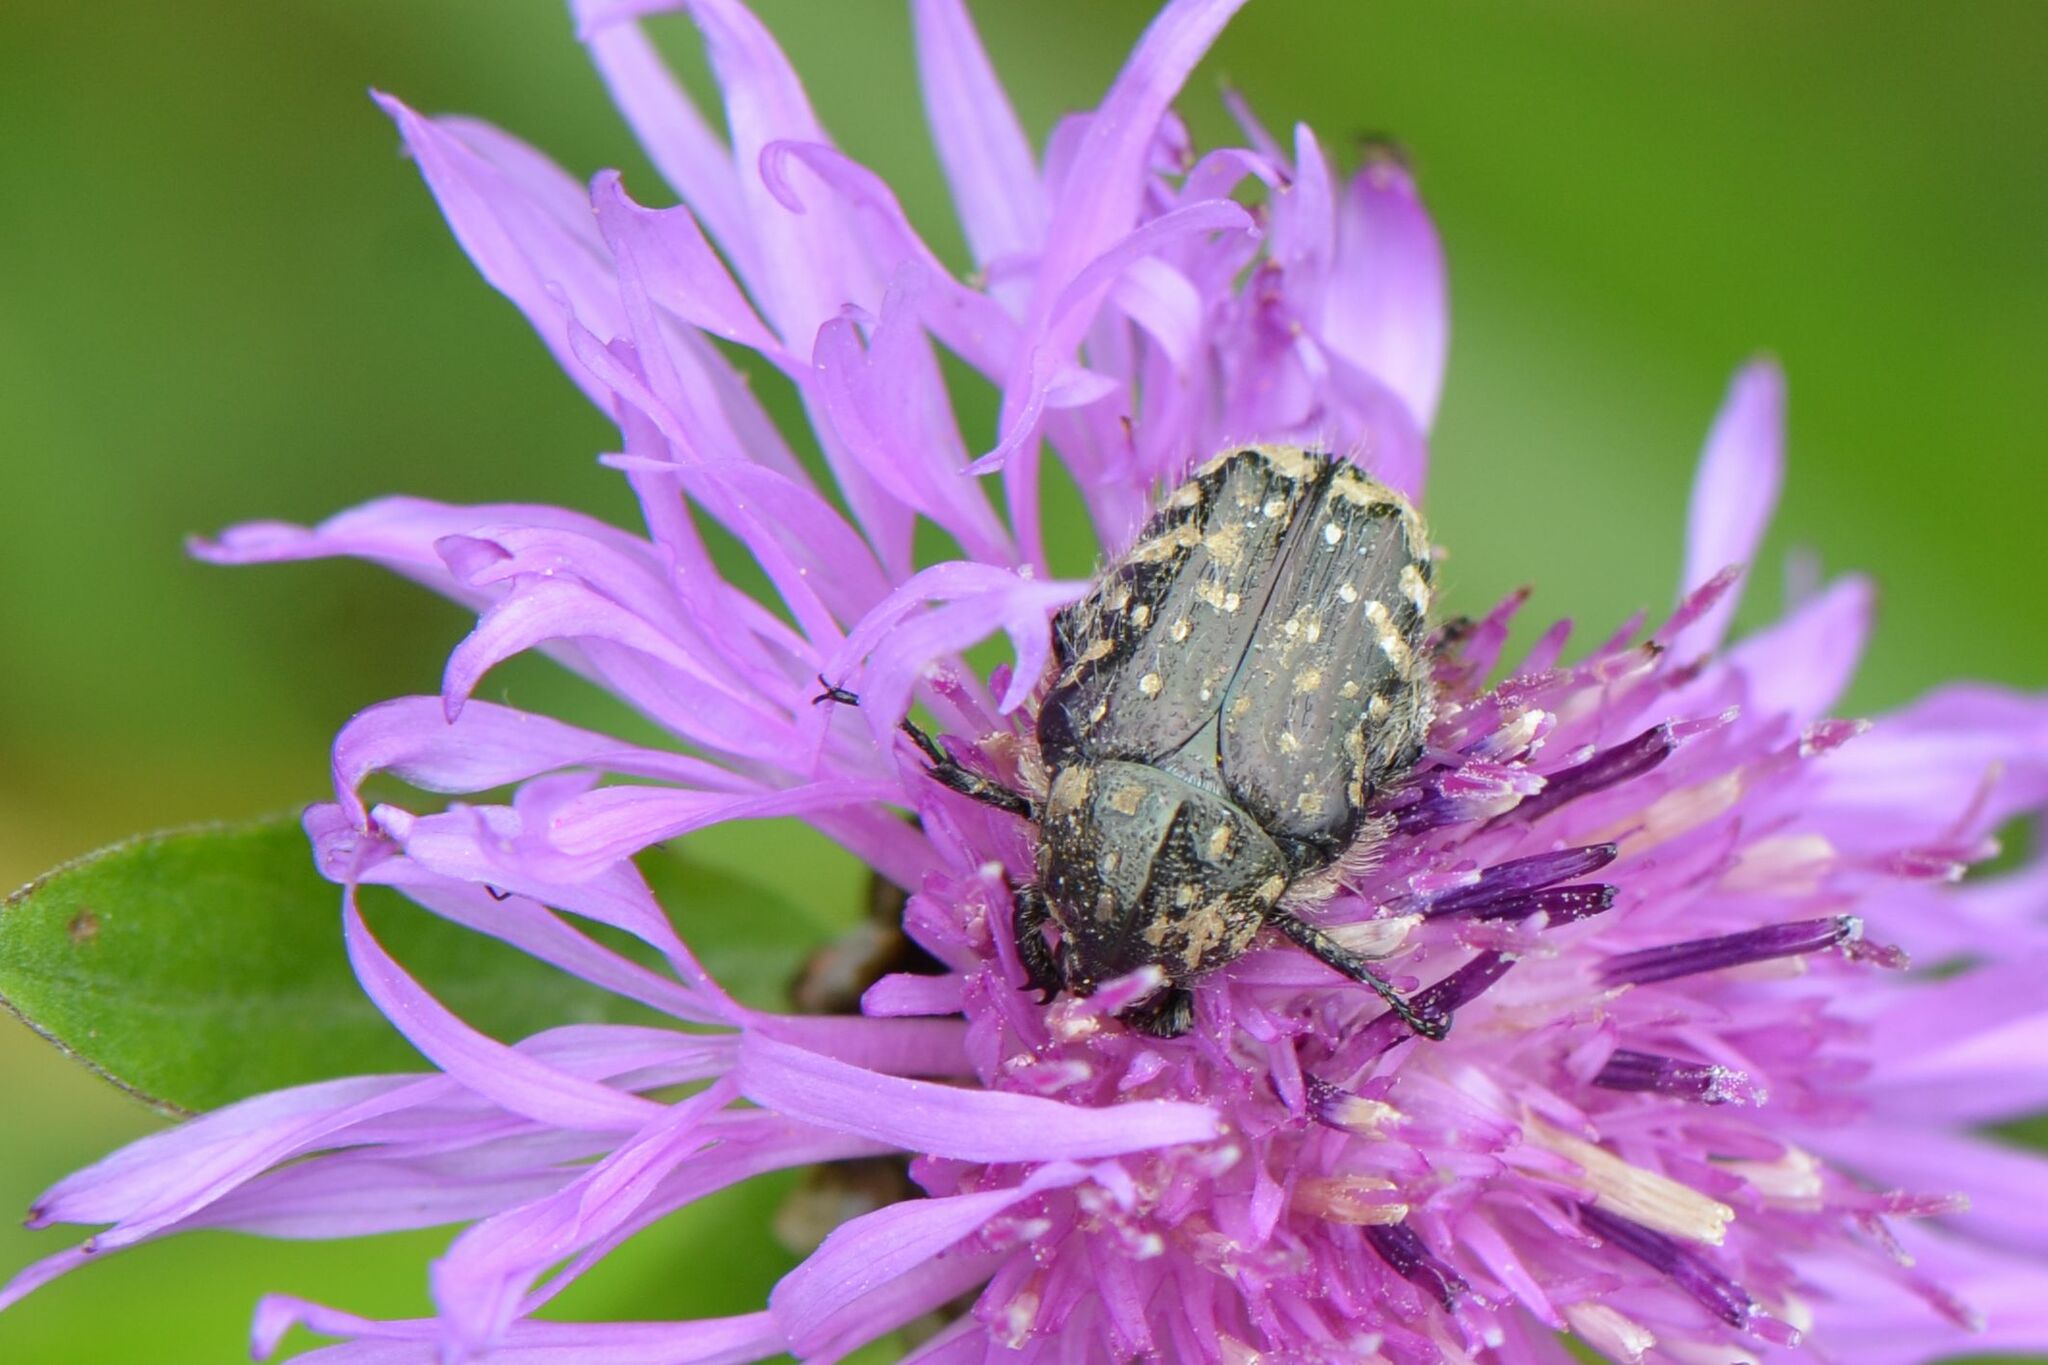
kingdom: Animalia
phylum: Arthropoda
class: Insecta
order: Coleoptera
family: Scarabaeidae
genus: Oxythyrea
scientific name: Oxythyrea funesta
